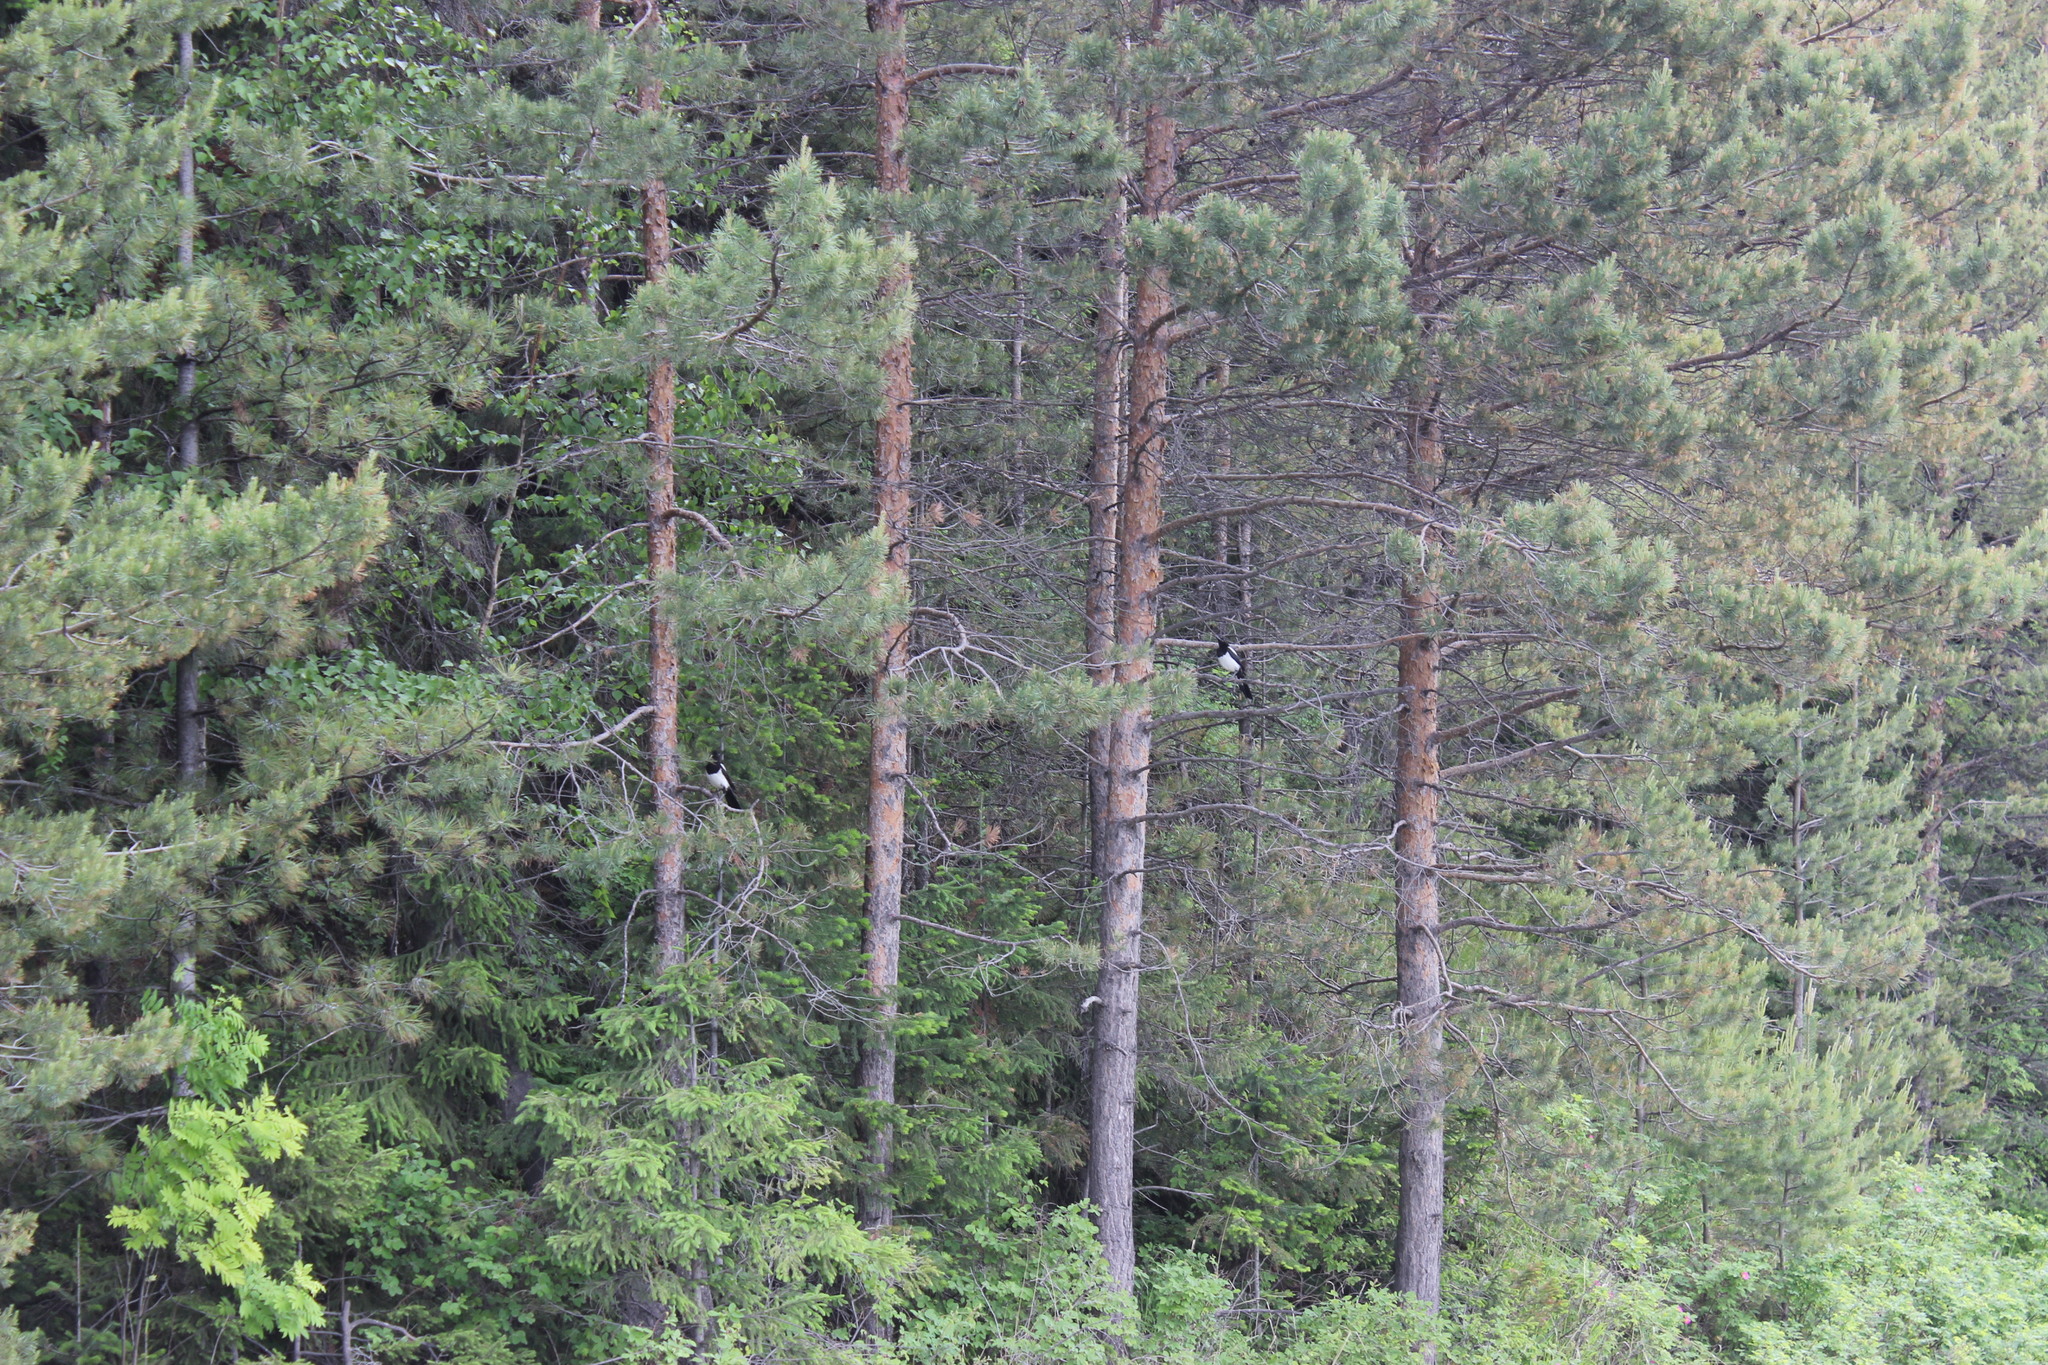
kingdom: Animalia
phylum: Chordata
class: Aves
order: Passeriformes
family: Corvidae
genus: Pica
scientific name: Pica pica
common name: Eurasian magpie
